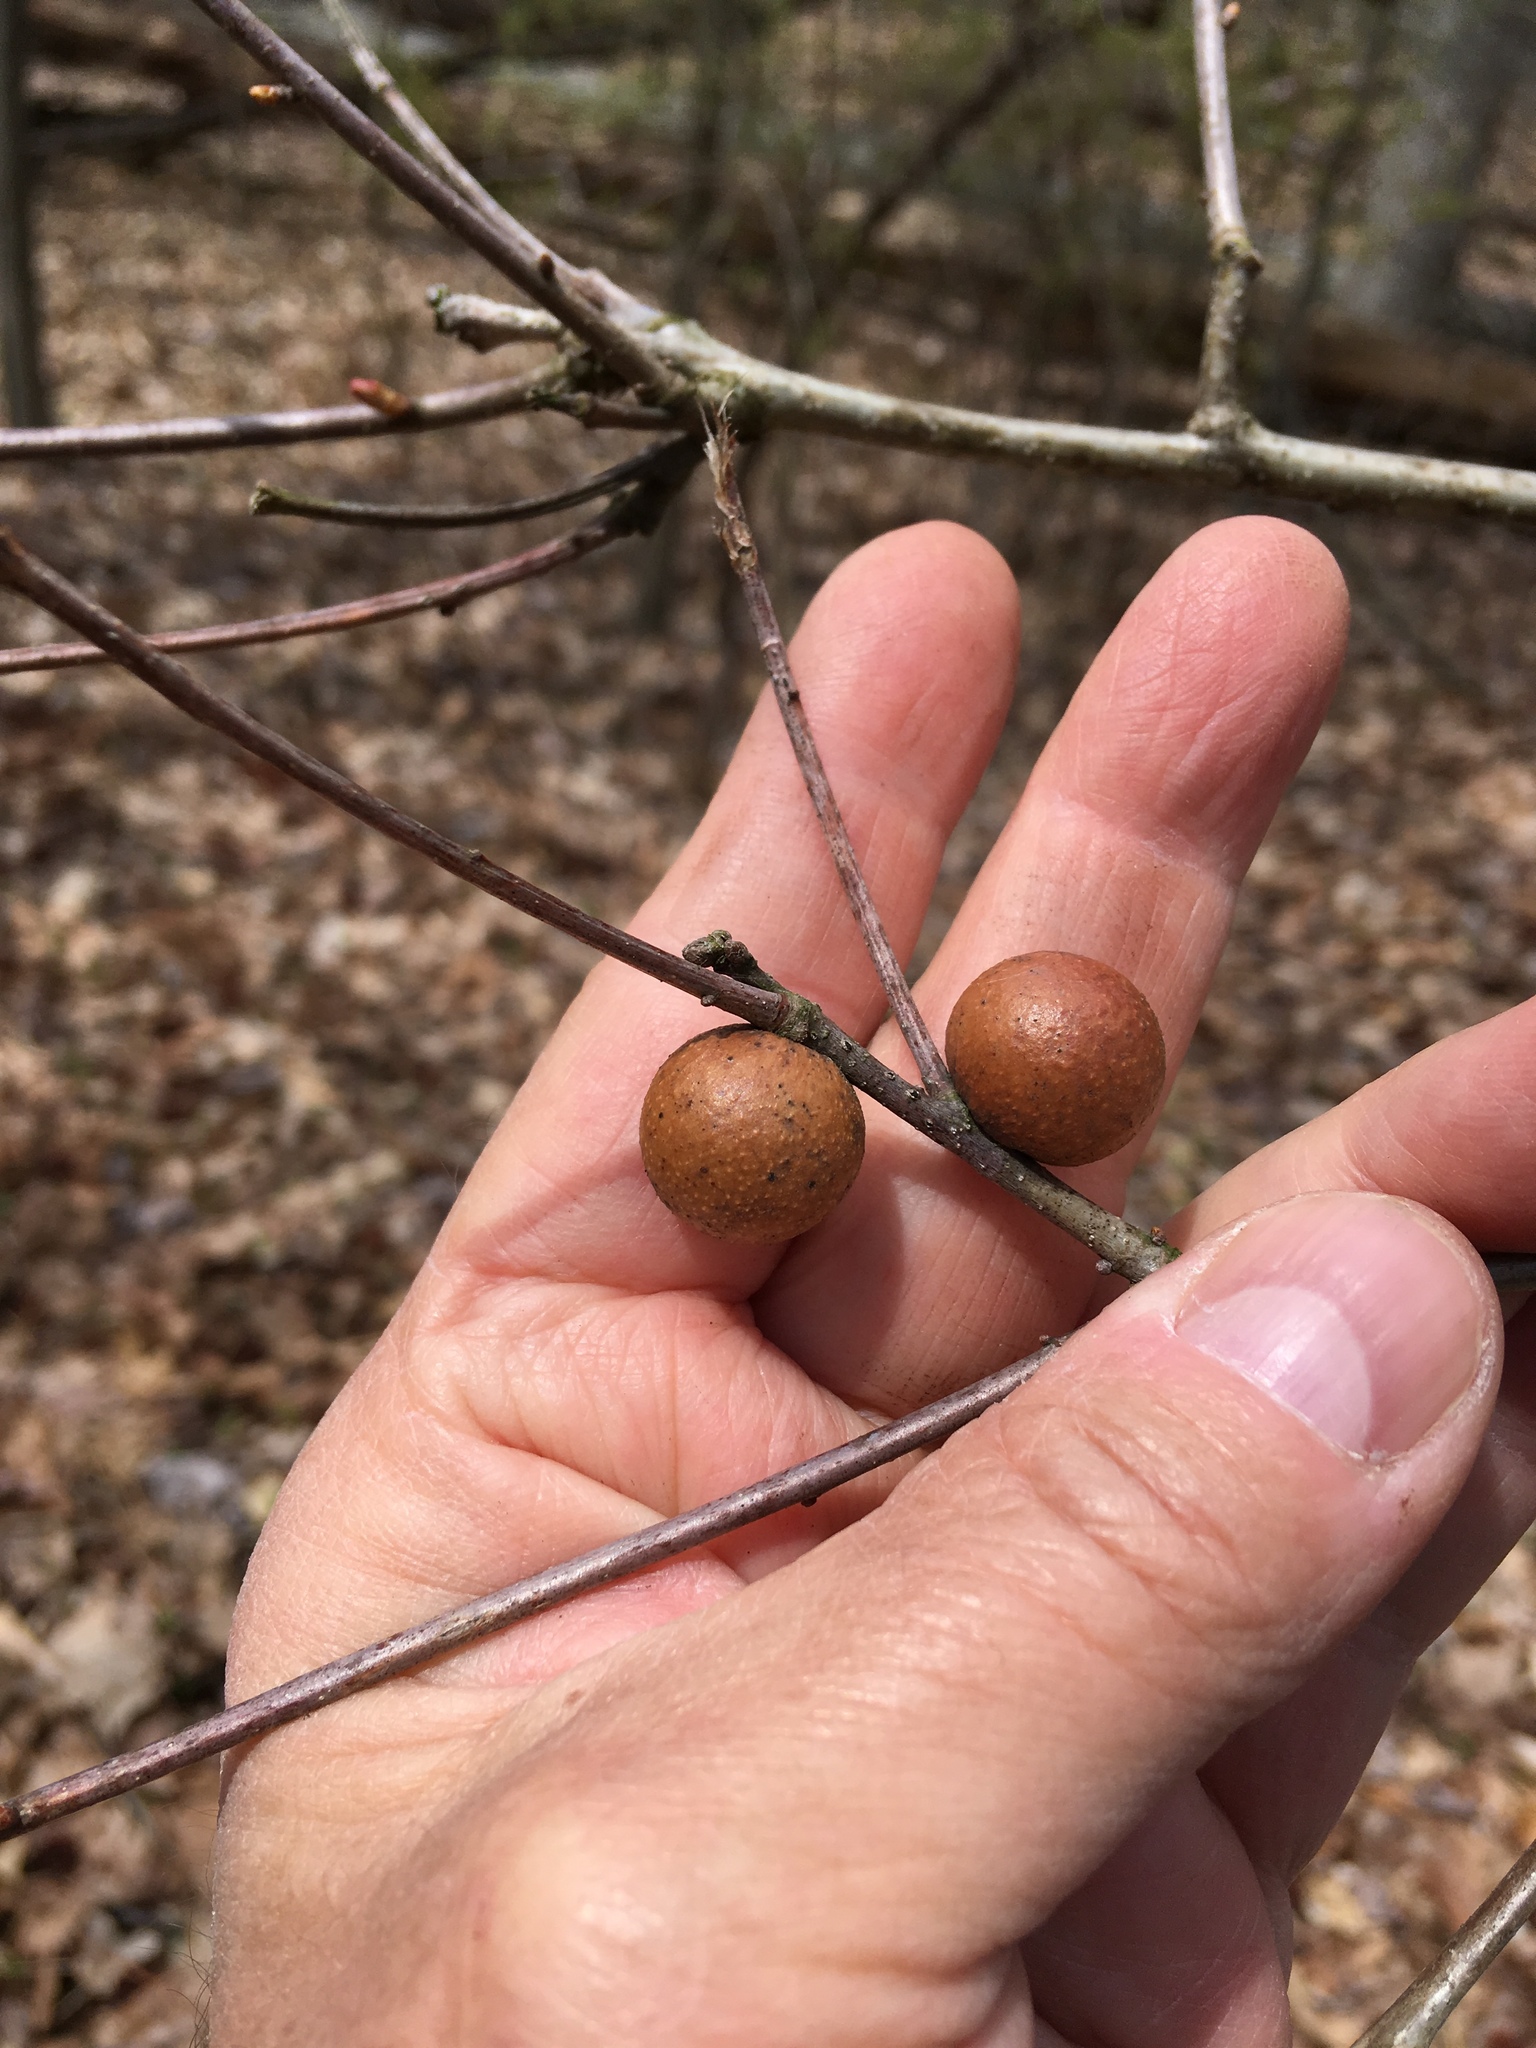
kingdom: Animalia
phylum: Arthropoda
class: Insecta
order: Hymenoptera
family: Cynipidae
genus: Disholcaspis
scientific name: Disholcaspis quercusglobulus
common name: Round bullet gall wasp
